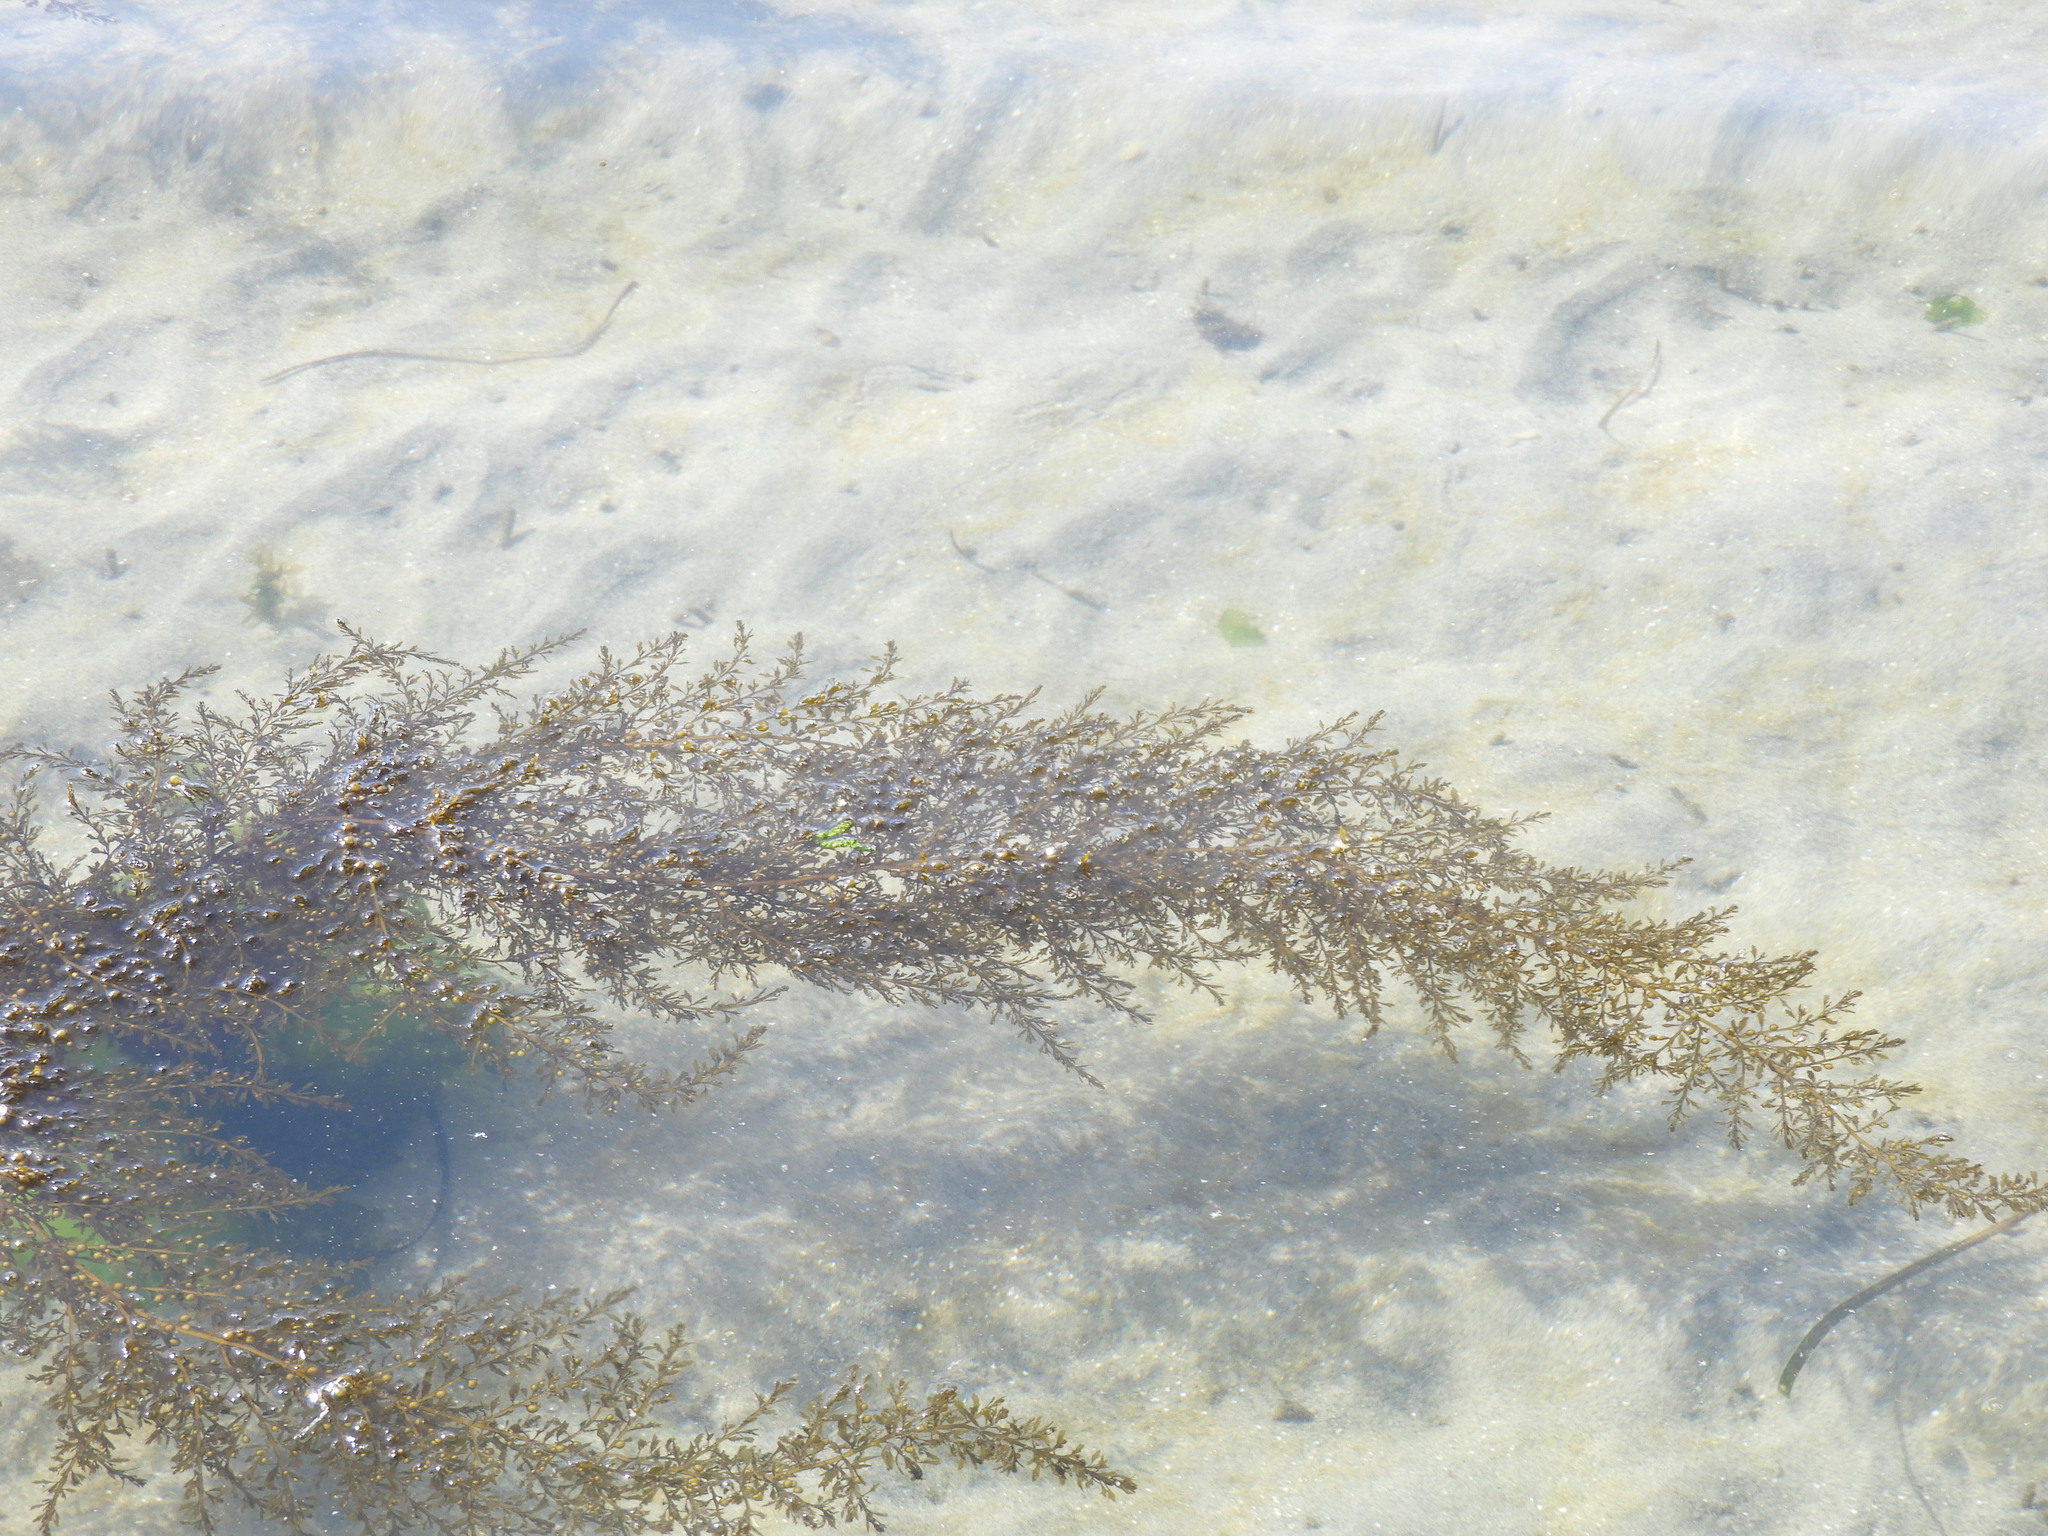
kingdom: Chromista
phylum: Ochrophyta
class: Phaeophyceae
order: Fucales
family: Sargassaceae
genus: Sargassum
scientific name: Sargassum muticum
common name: Japweed
